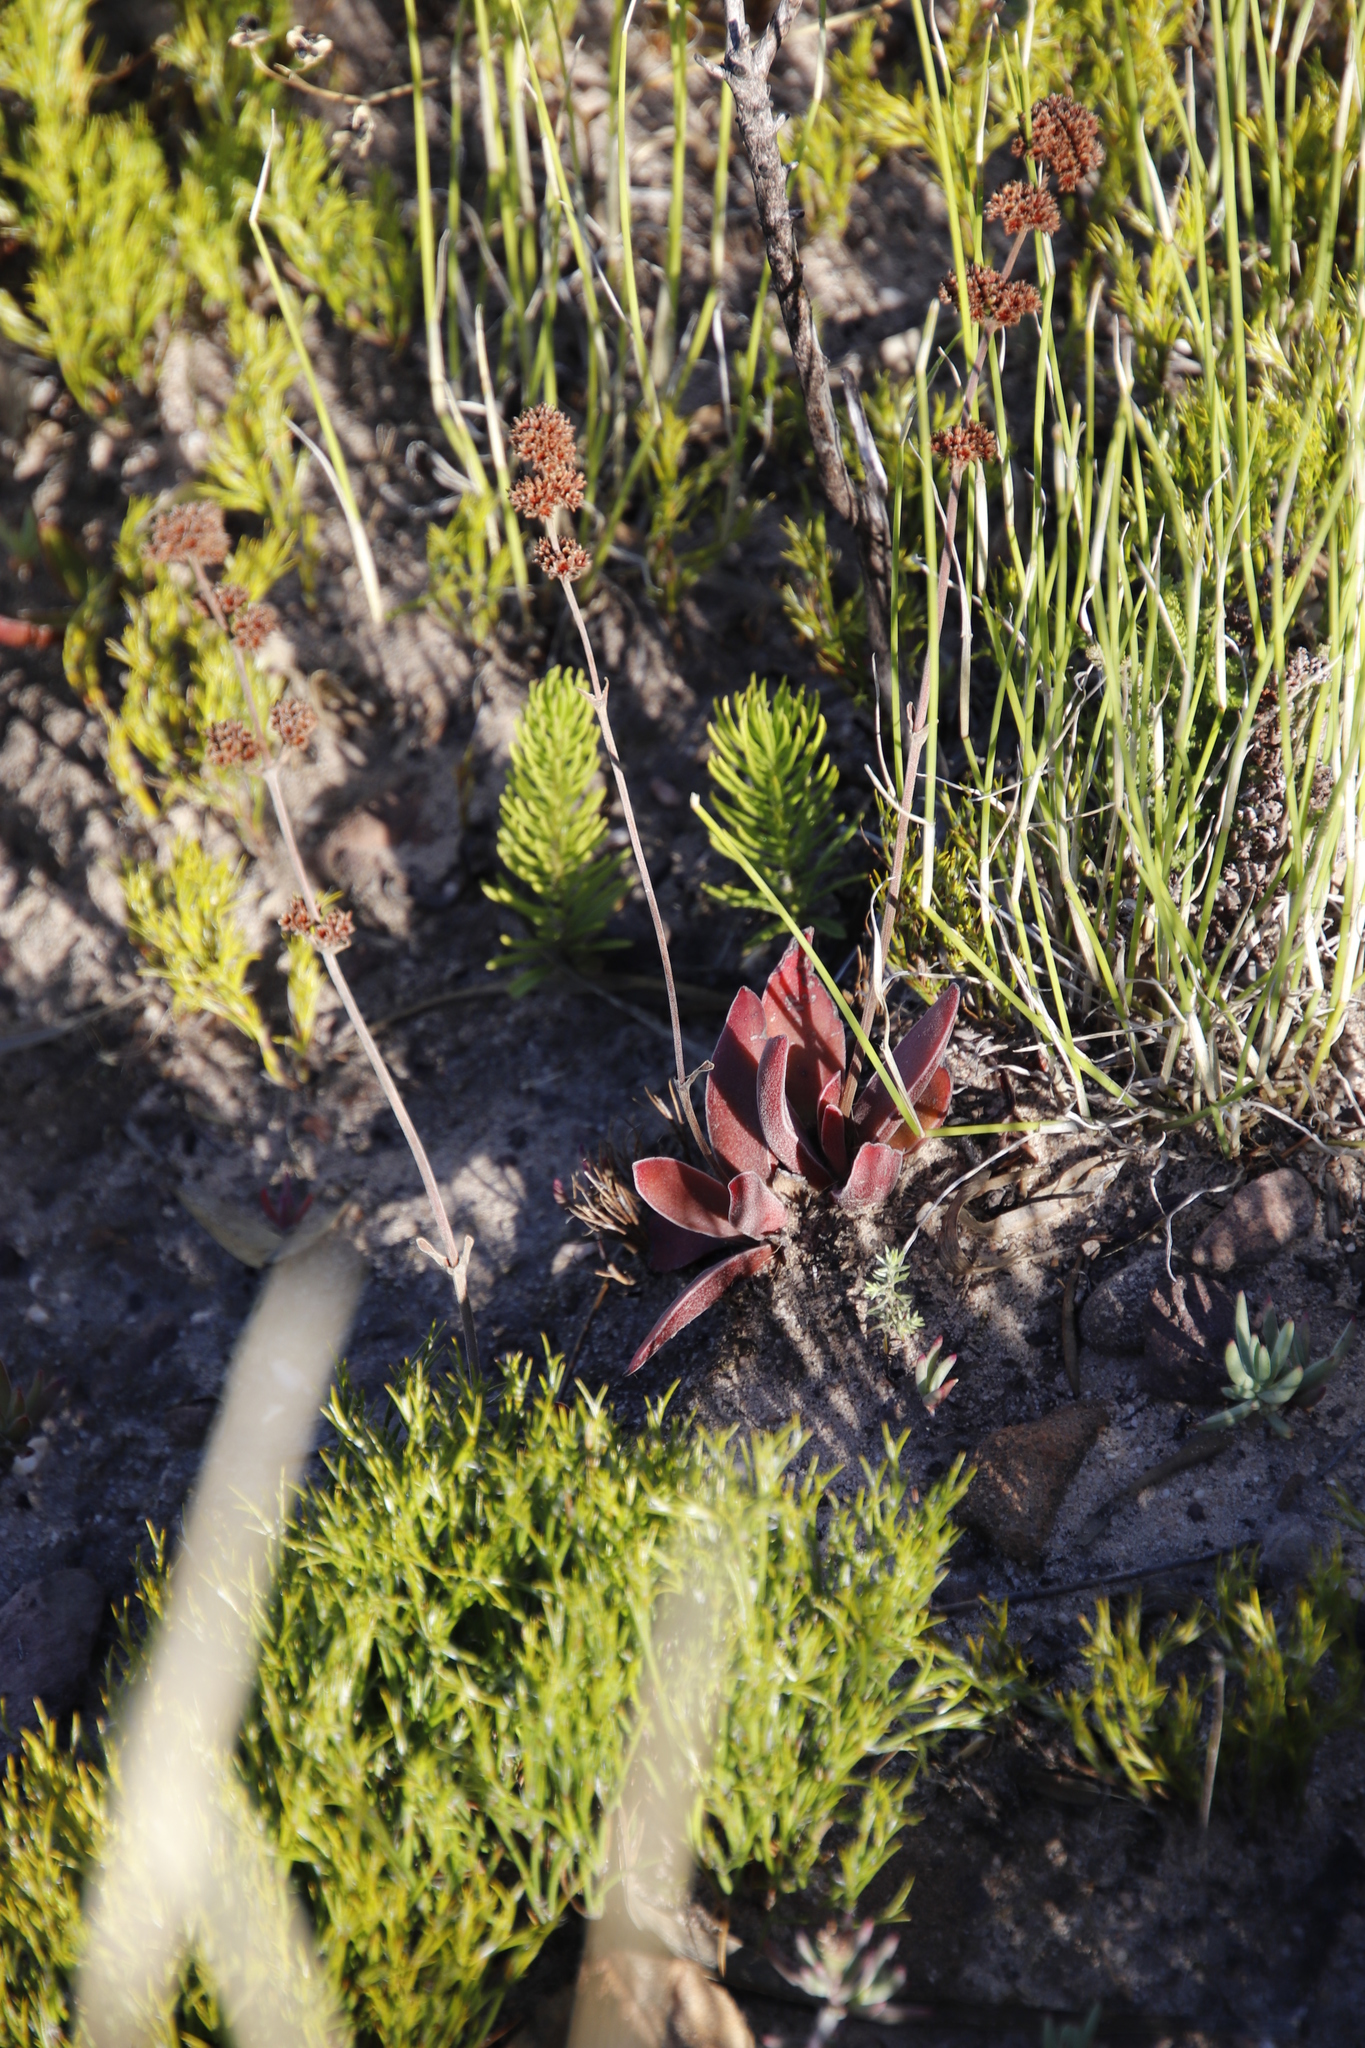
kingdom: Plantae
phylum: Tracheophyta
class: Magnoliopsida
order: Saxifragales
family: Crassulaceae
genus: Crassula
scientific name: Crassula nudicaulis
